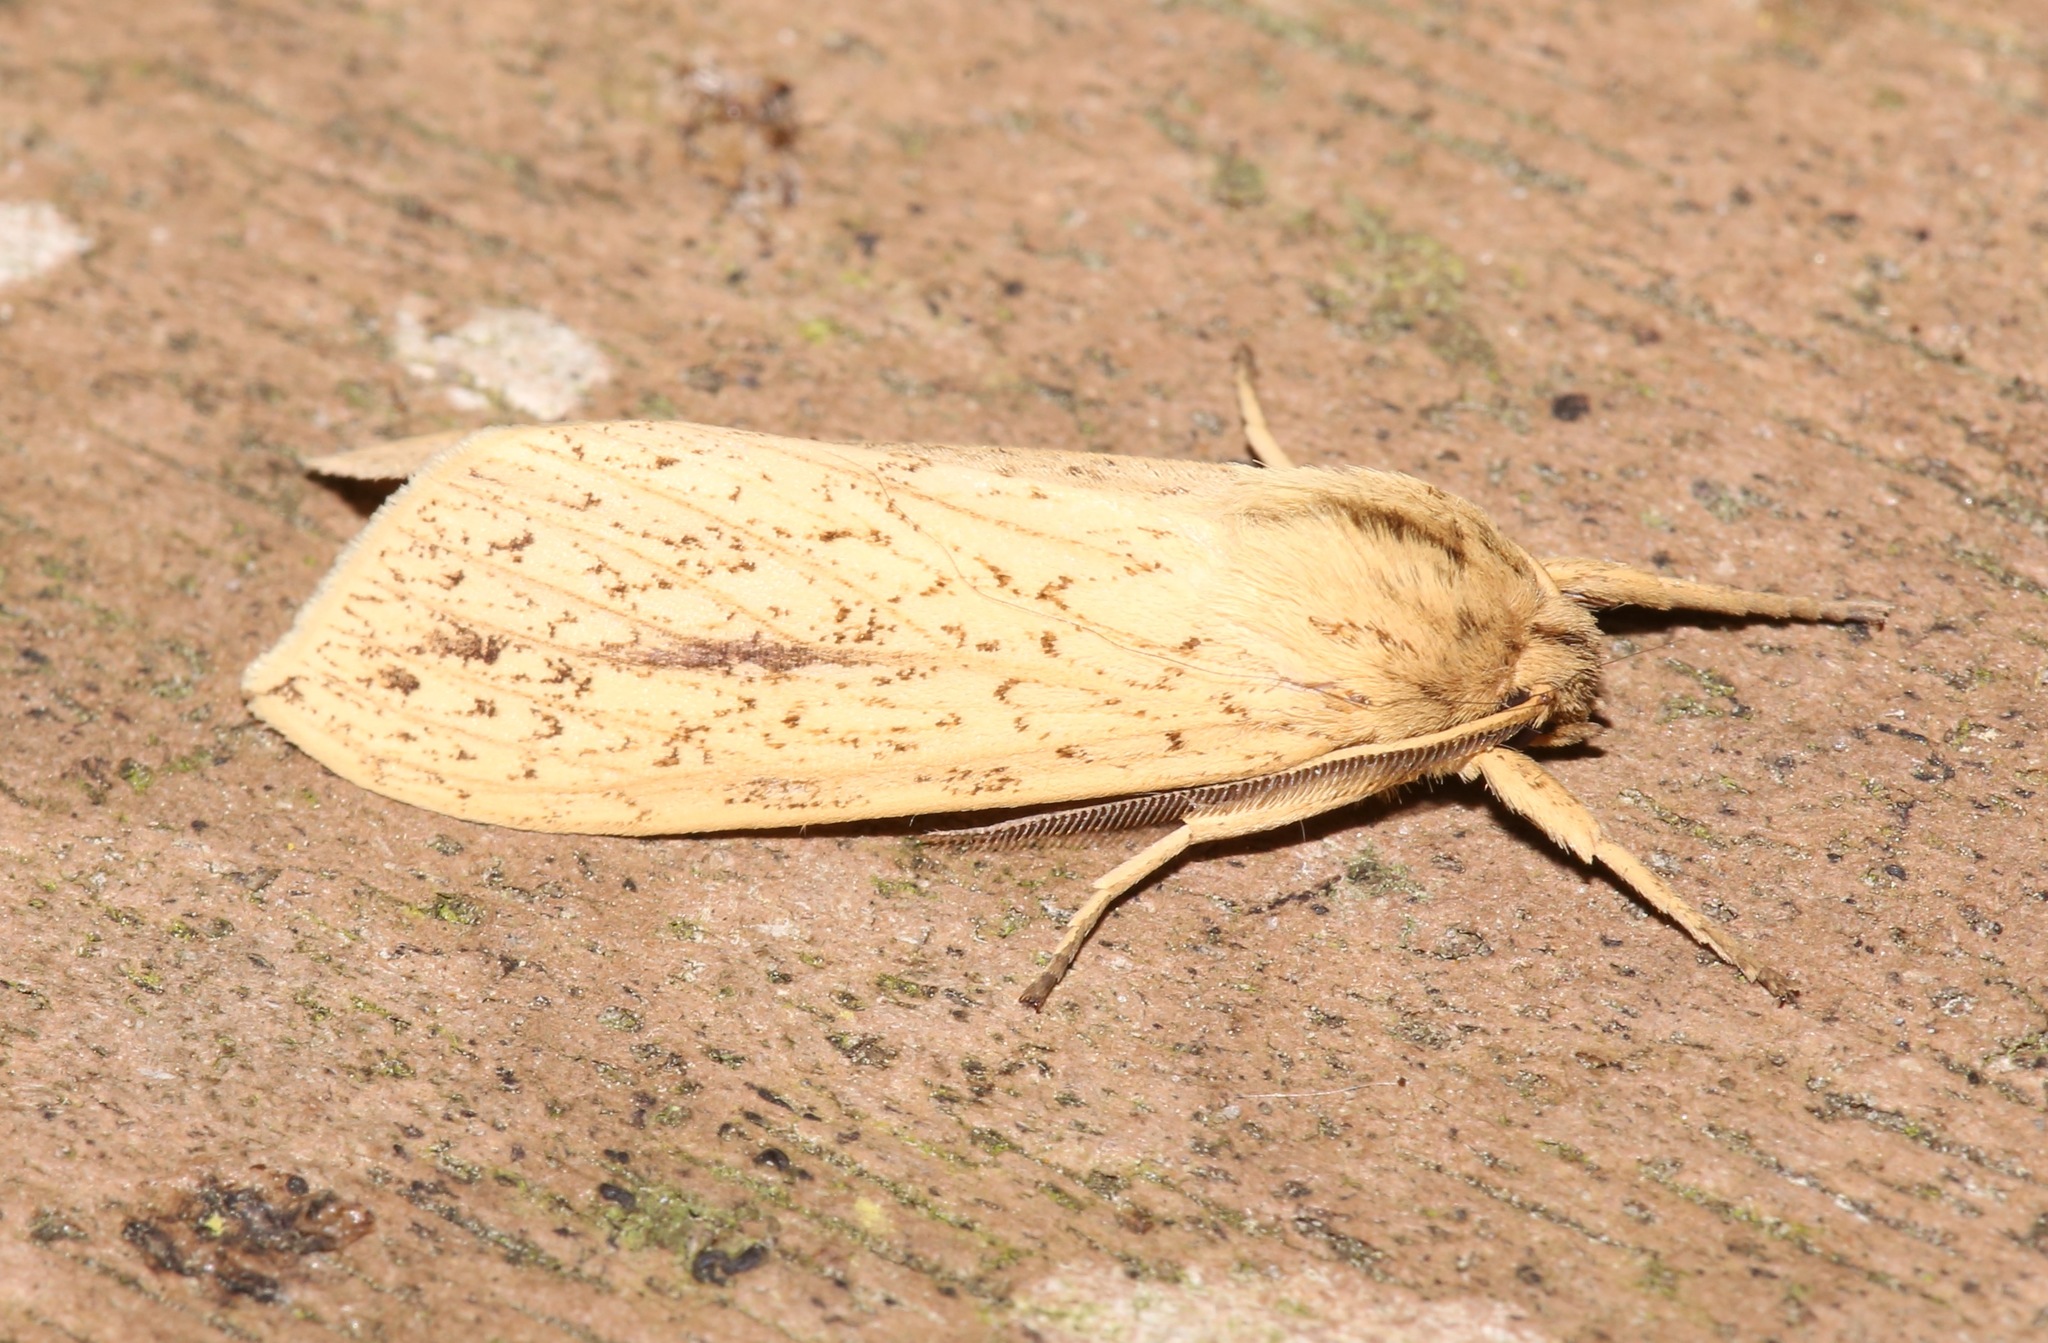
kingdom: Animalia
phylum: Arthropoda
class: Insecta
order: Lepidoptera
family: Erebidae
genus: Leucanopsis
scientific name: Leucanopsis longa
